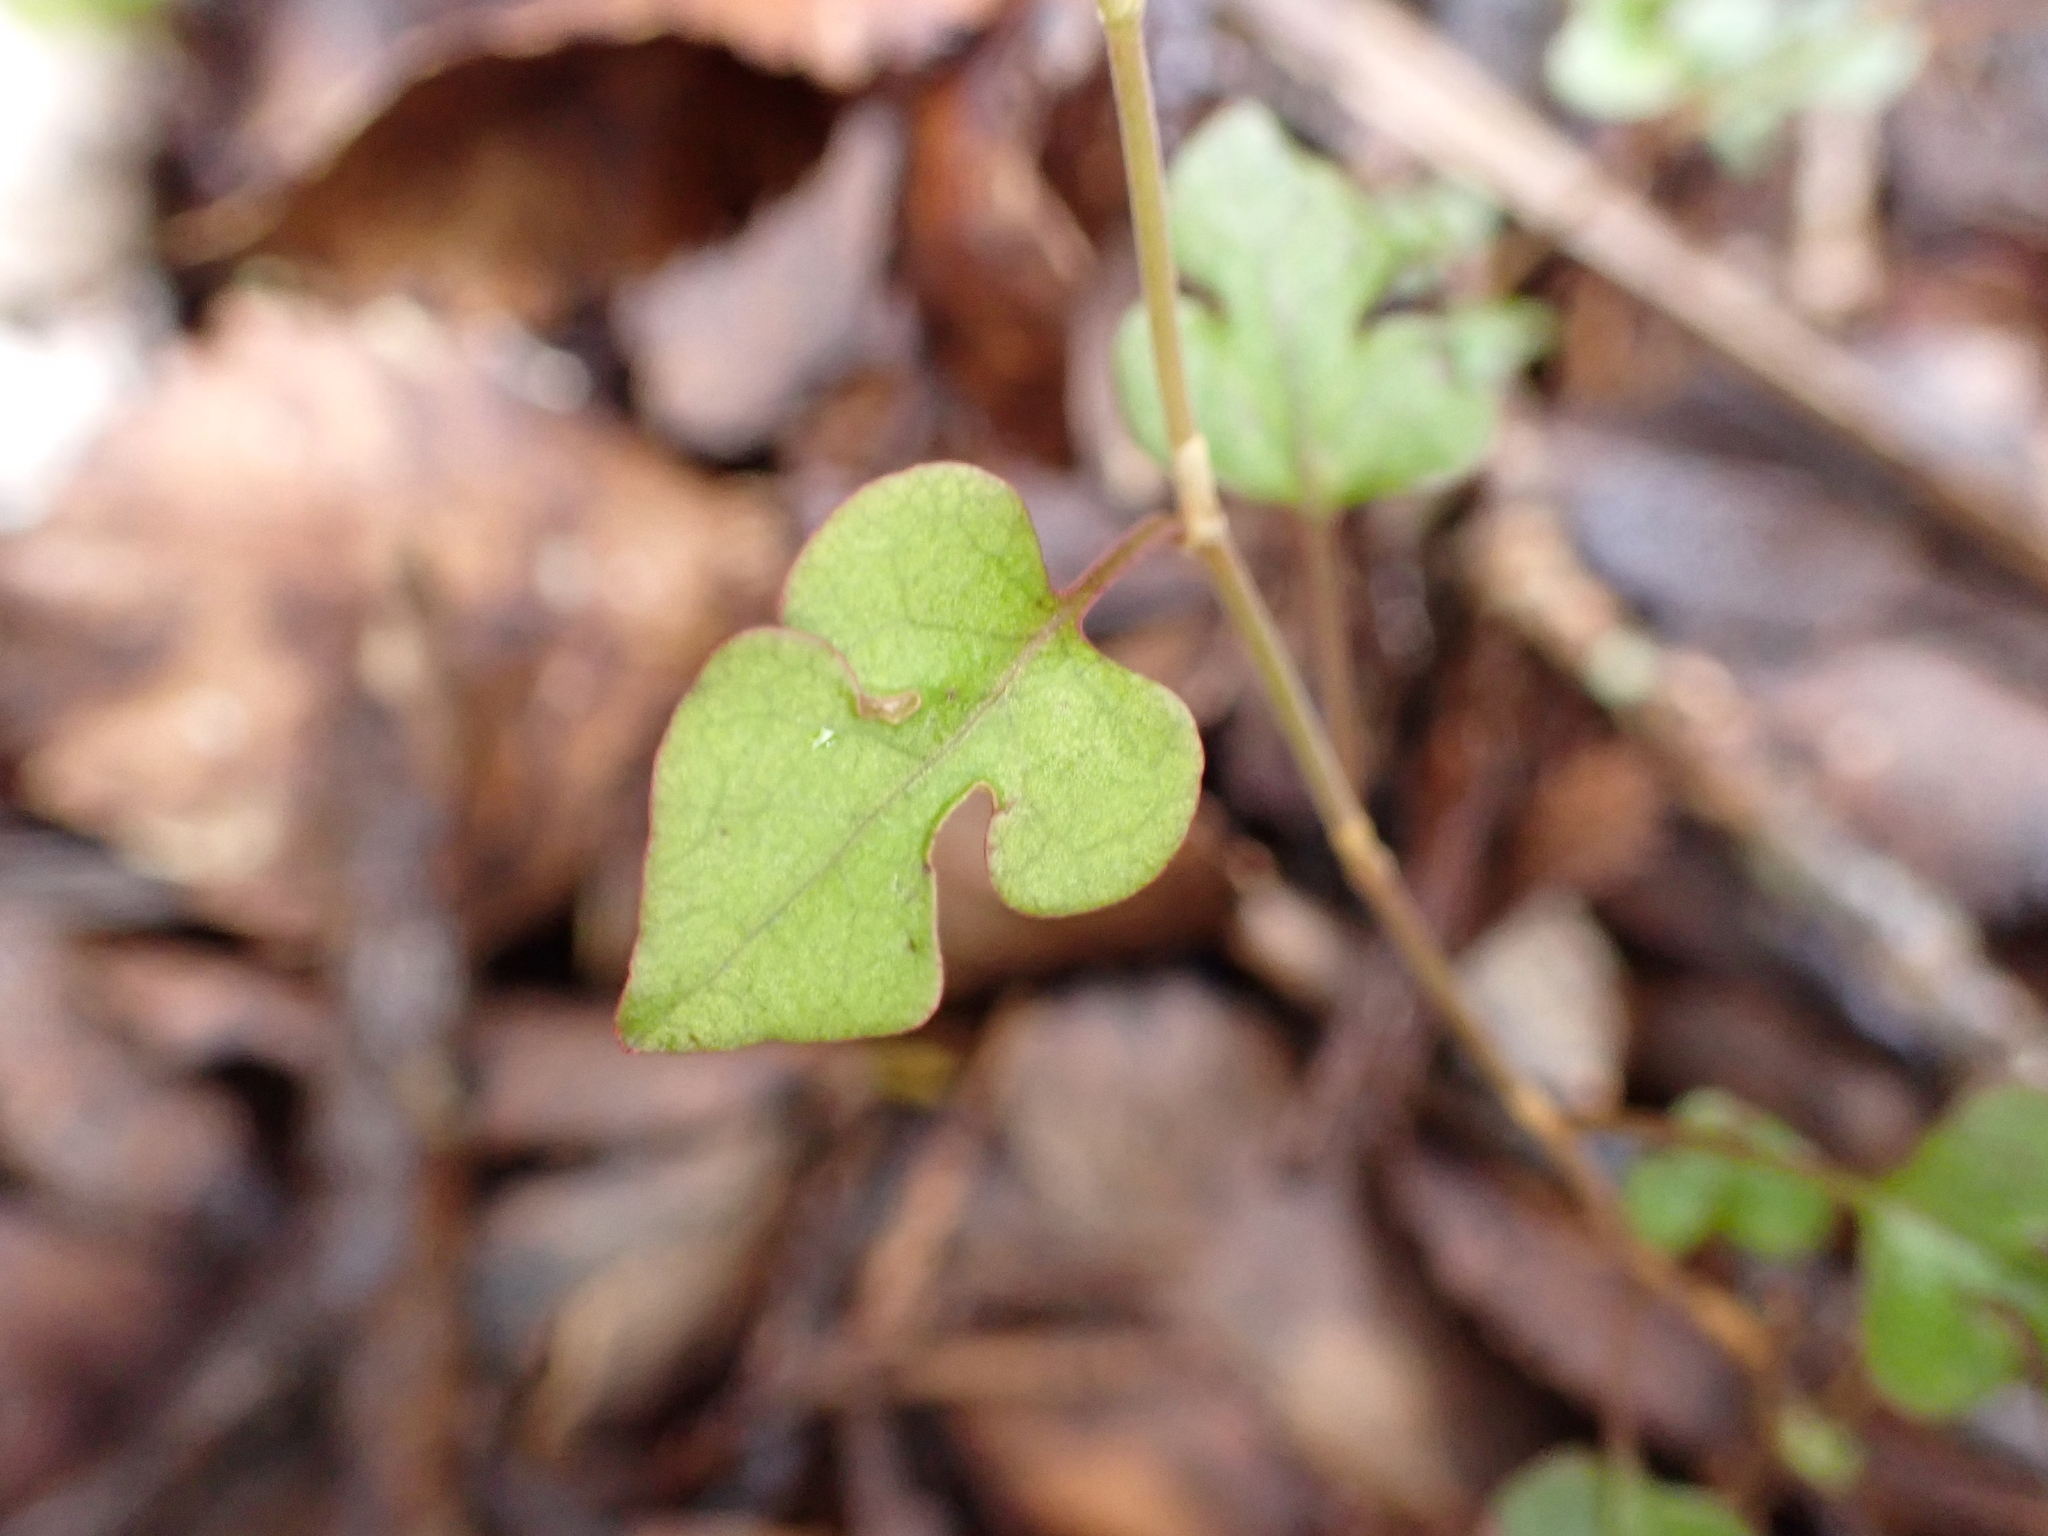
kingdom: Plantae
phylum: Tracheophyta
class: Magnoliopsida
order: Caryophyllales
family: Polygonaceae
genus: Muehlenbeckia
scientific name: Muehlenbeckia australis
